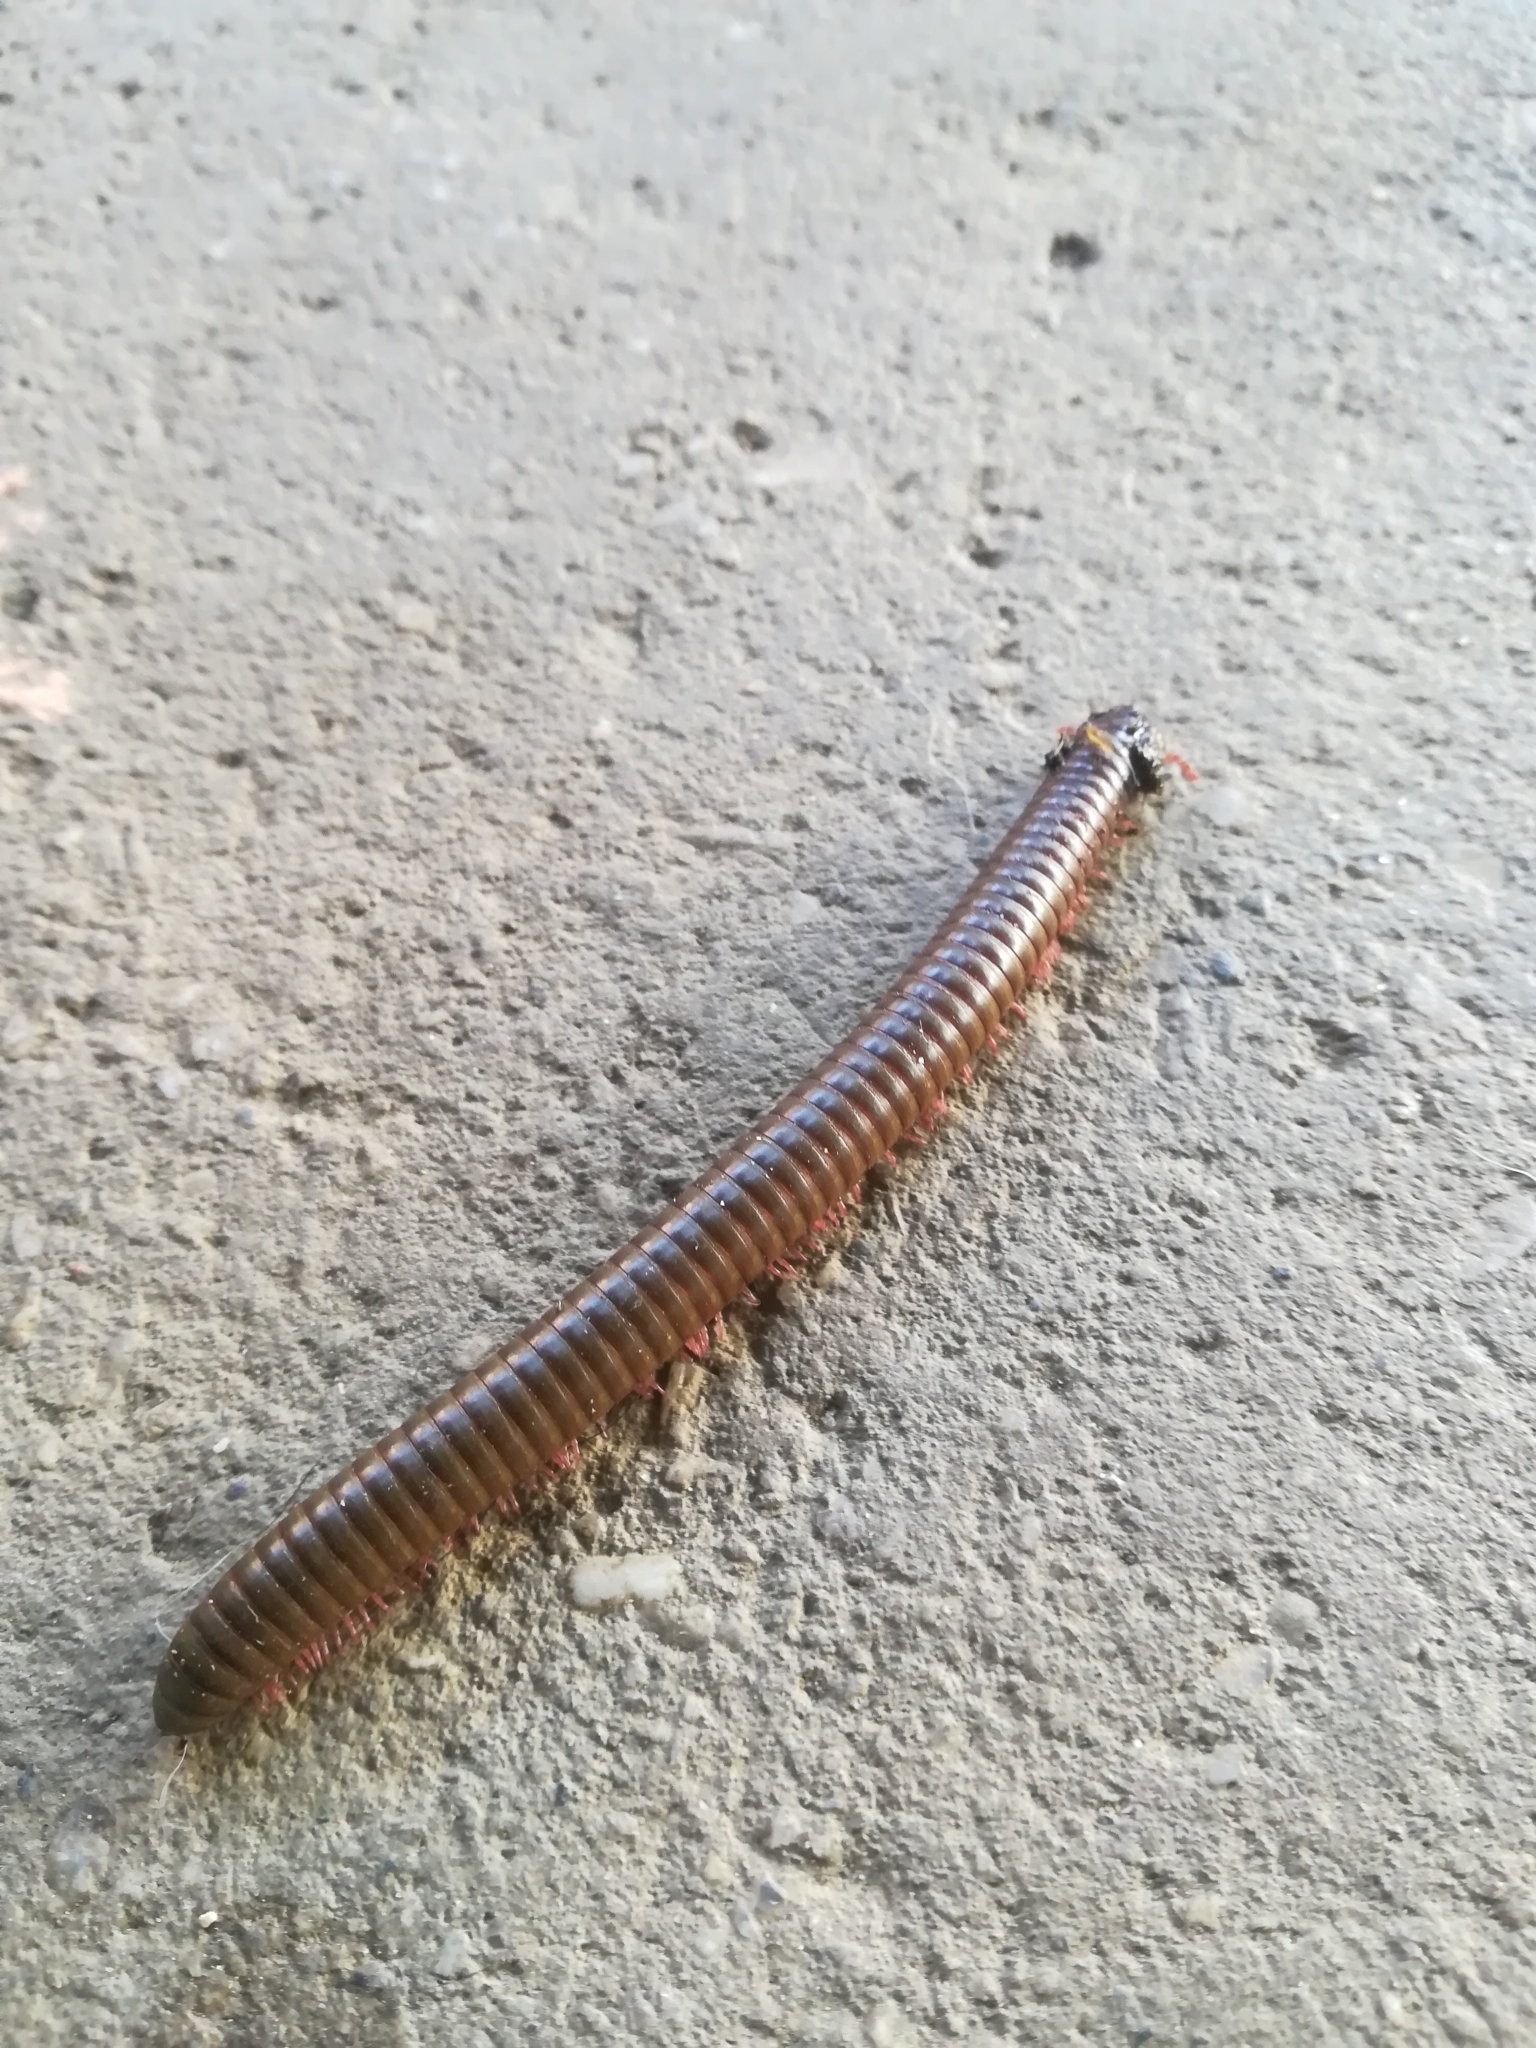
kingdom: Animalia
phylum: Arthropoda
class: Diplopoda
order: Spirobolida
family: Pachybolidae
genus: Trigoniulus
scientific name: Trigoniulus corallinus
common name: Millipede
